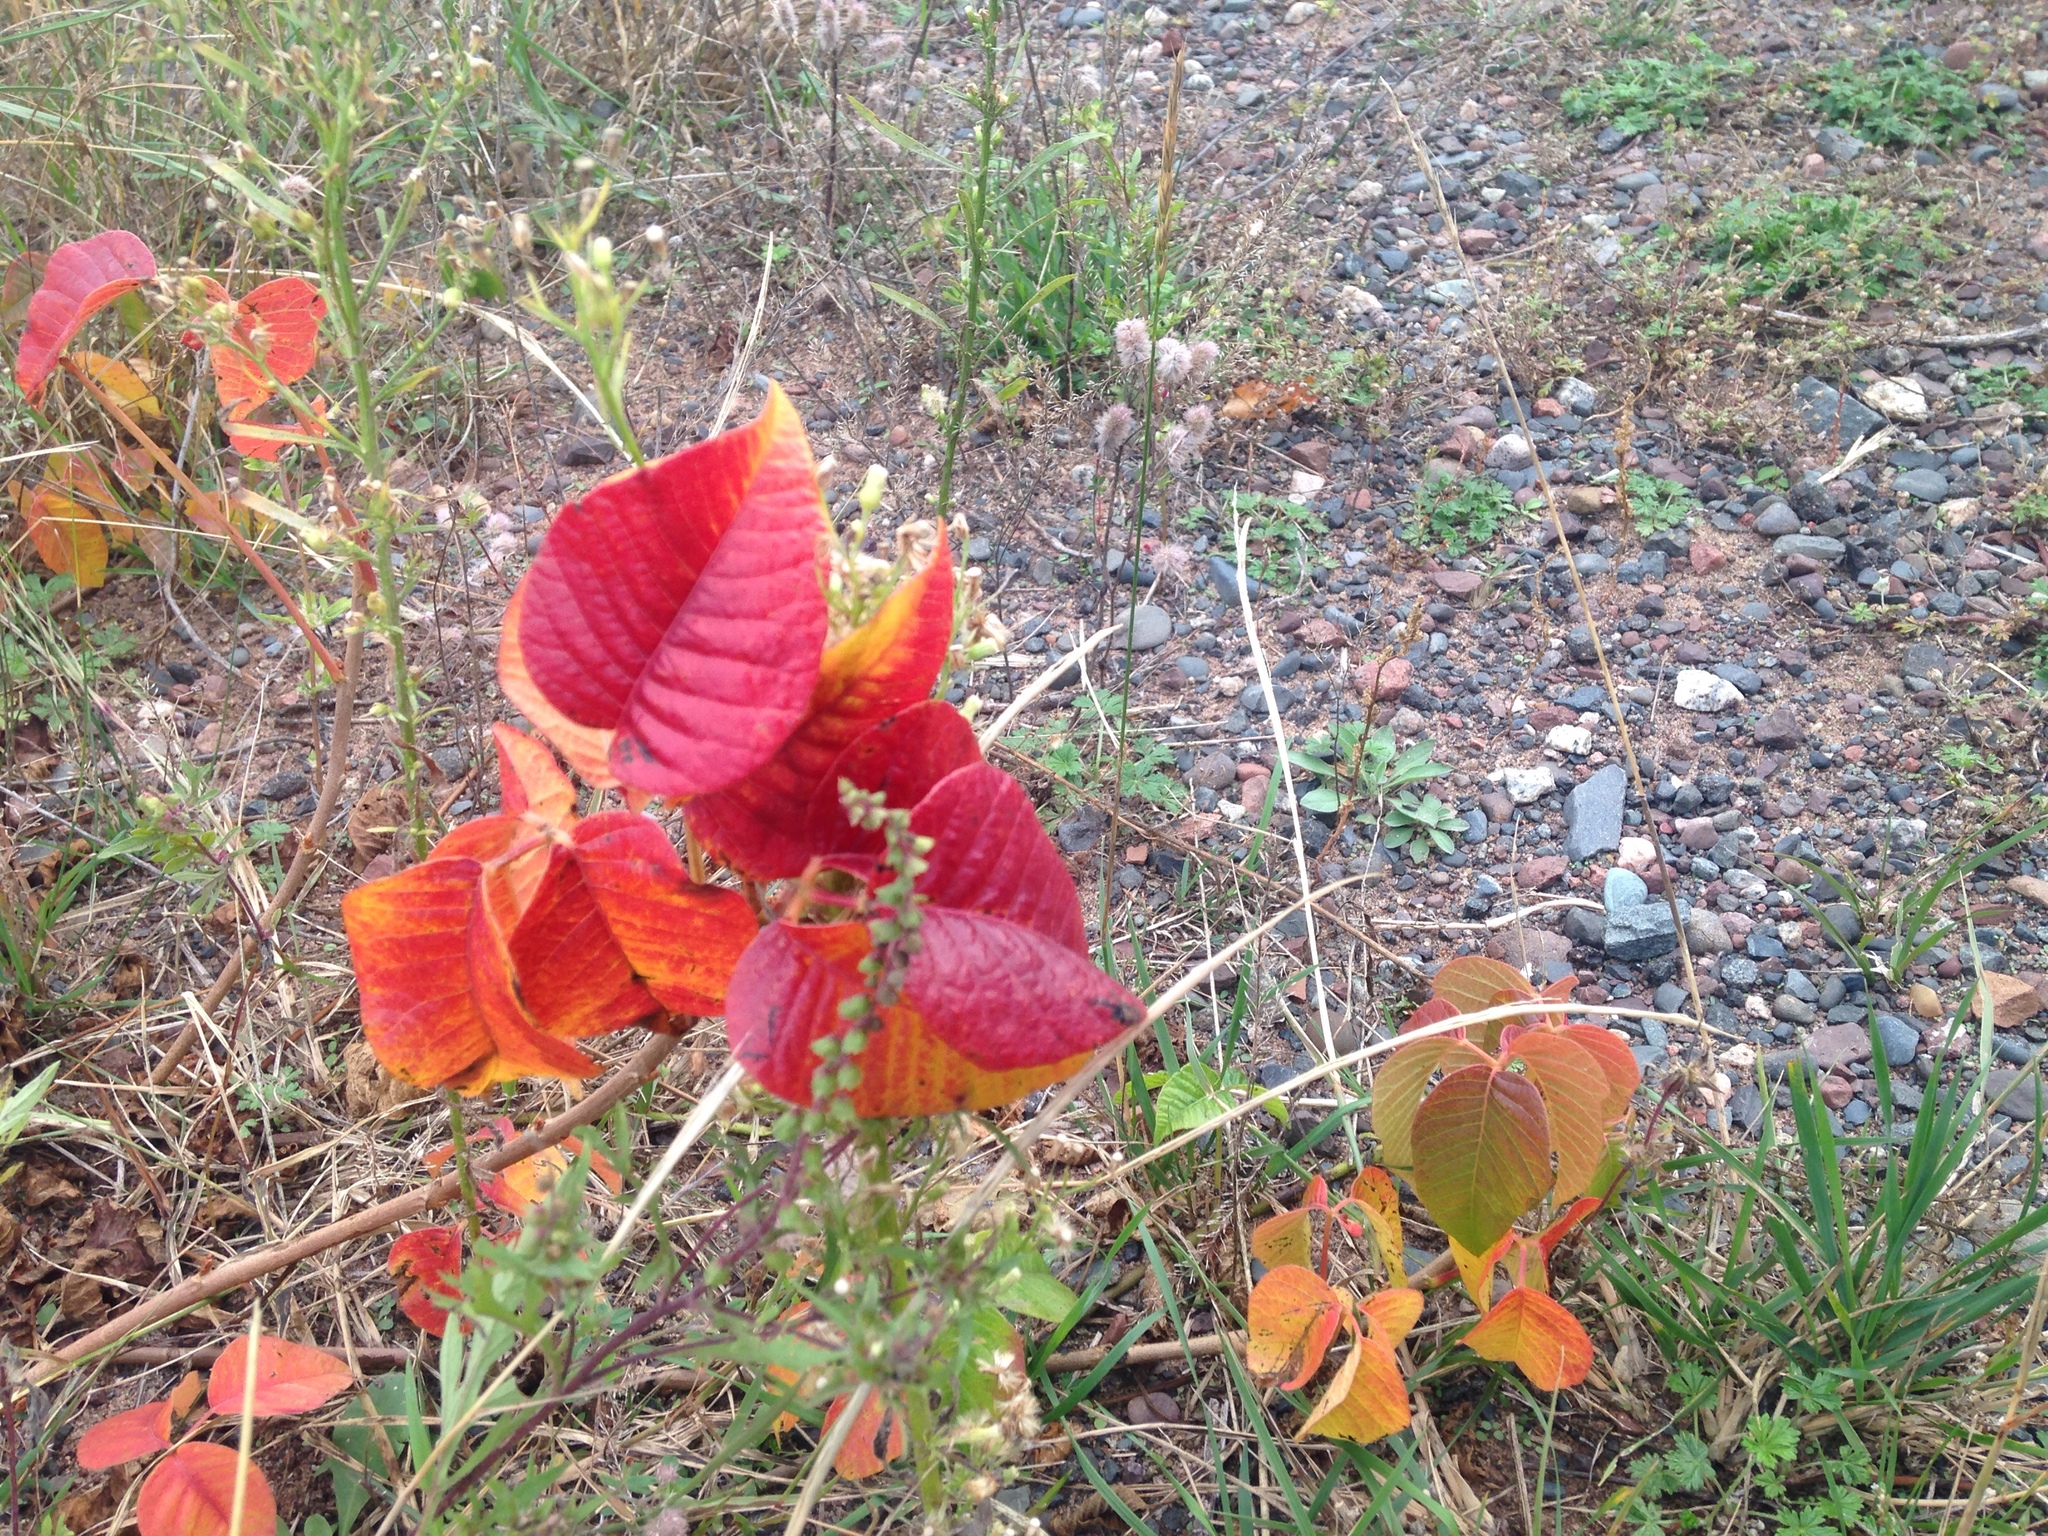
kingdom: Plantae
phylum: Tracheophyta
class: Magnoliopsida
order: Sapindales
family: Anacardiaceae
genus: Toxicodendron
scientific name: Toxicodendron rydbergii
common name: Rydberg's poison-ivy
